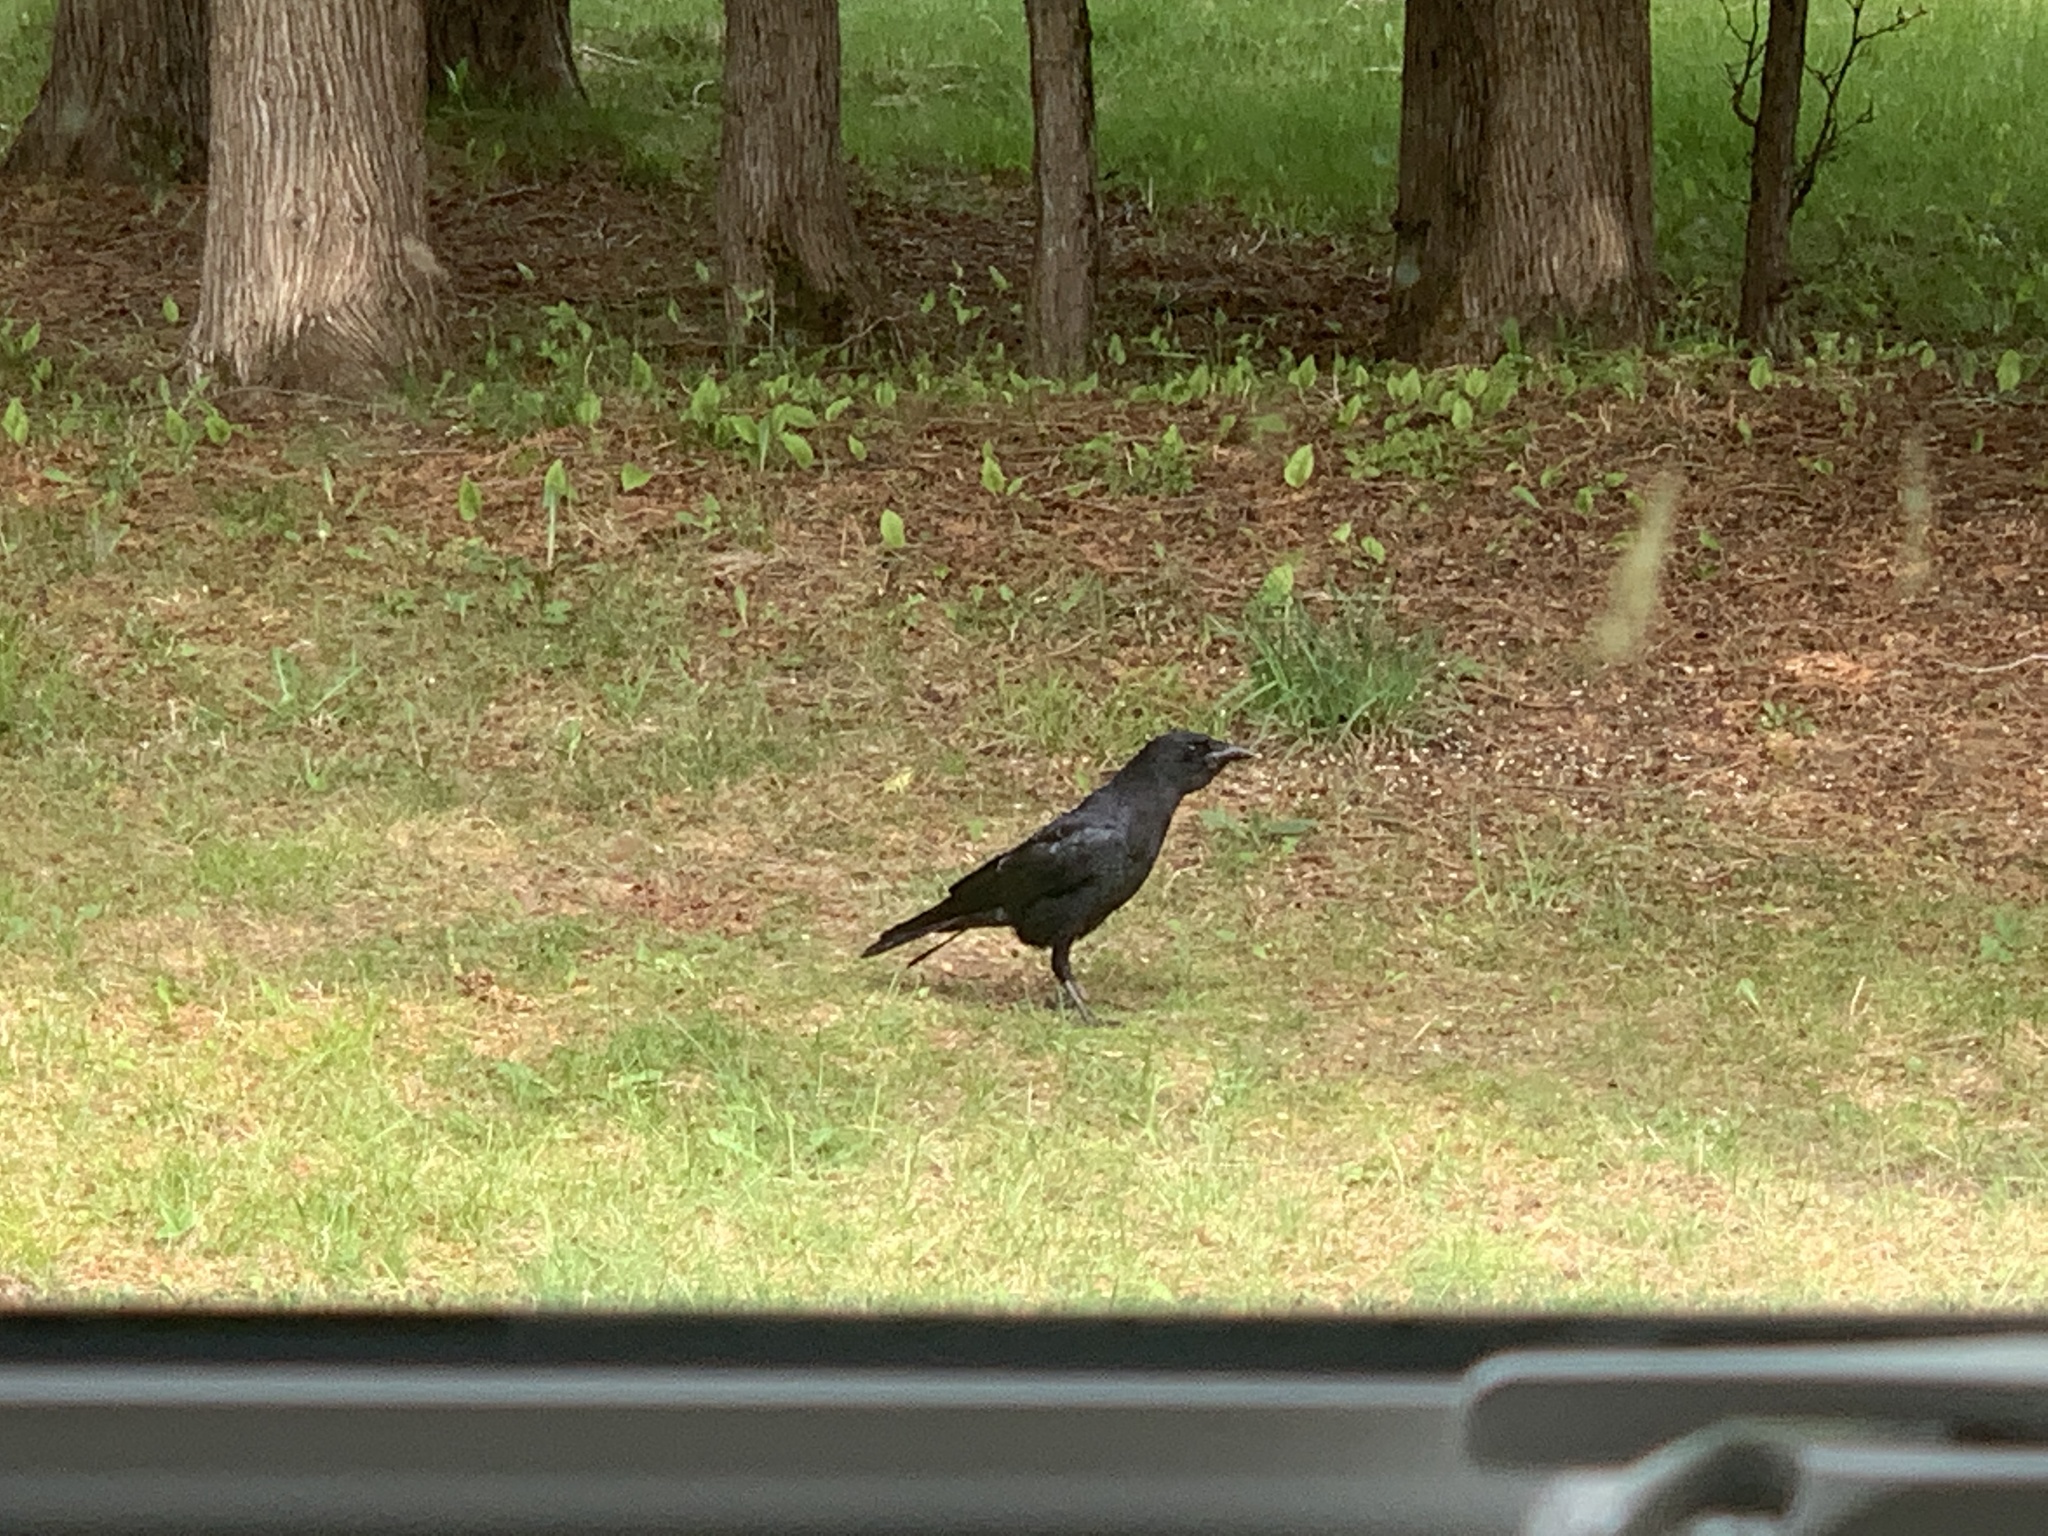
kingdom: Animalia
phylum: Chordata
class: Aves
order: Passeriformes
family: Corvidae
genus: Corvus
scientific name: Corvus brachyrhynchos
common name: American crow
